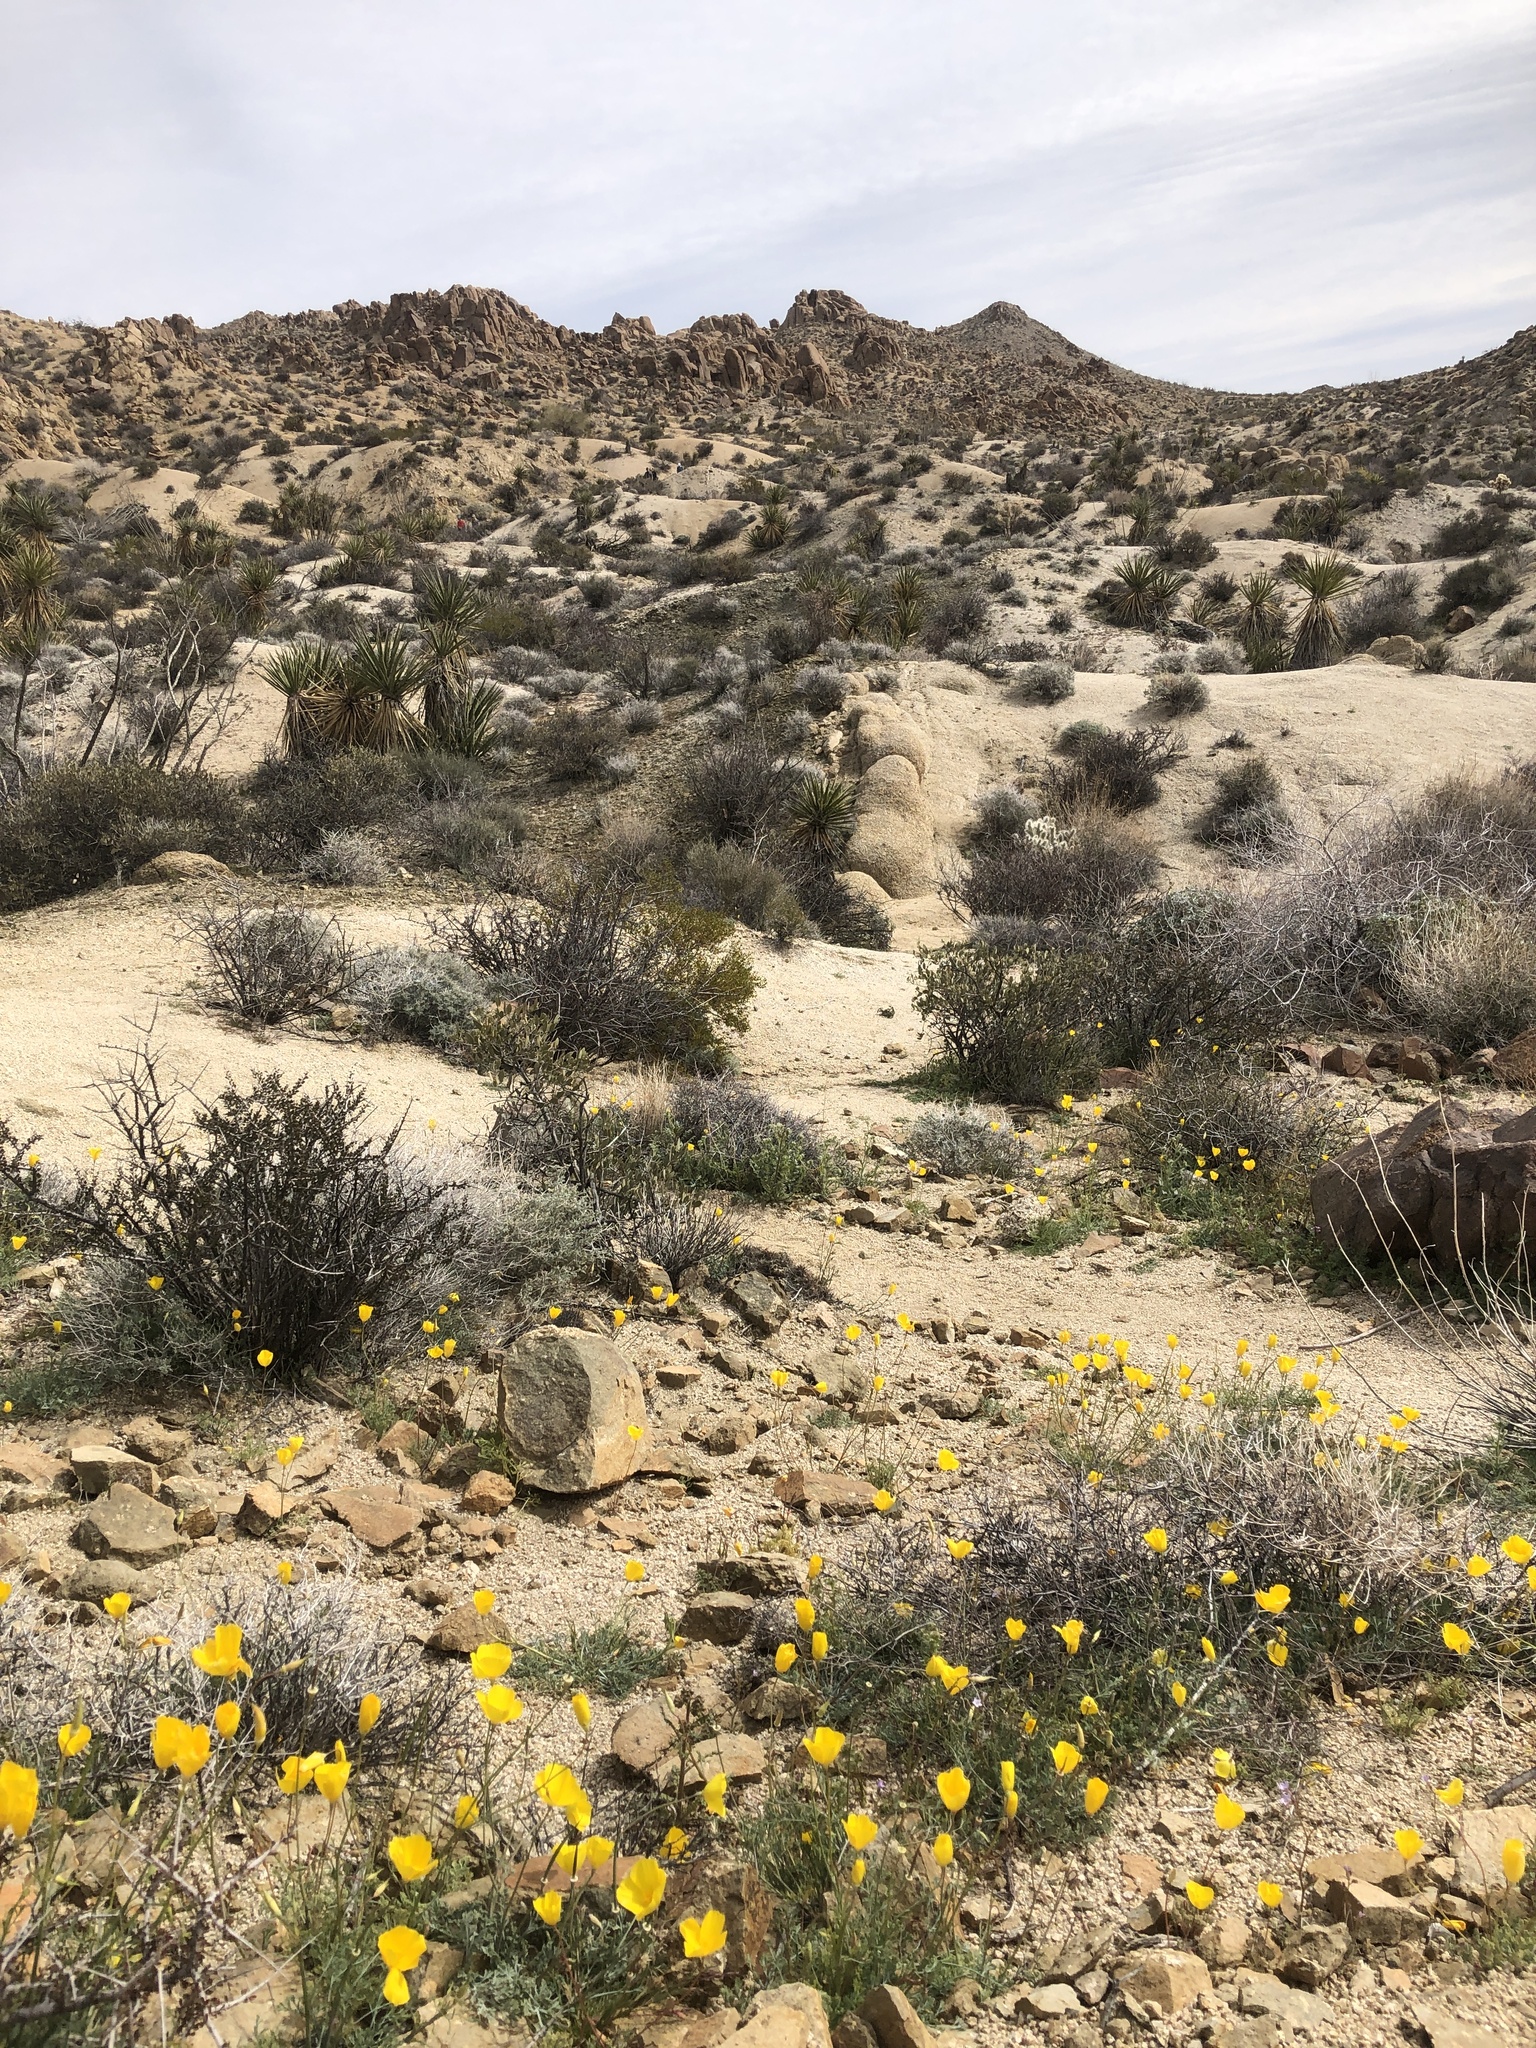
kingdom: Plantae
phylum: Tracheophyta
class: Magnoliopsida
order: Ranunculales
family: Papaveraceae
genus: Eschscholzia
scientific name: Eschscholzia papastillii
